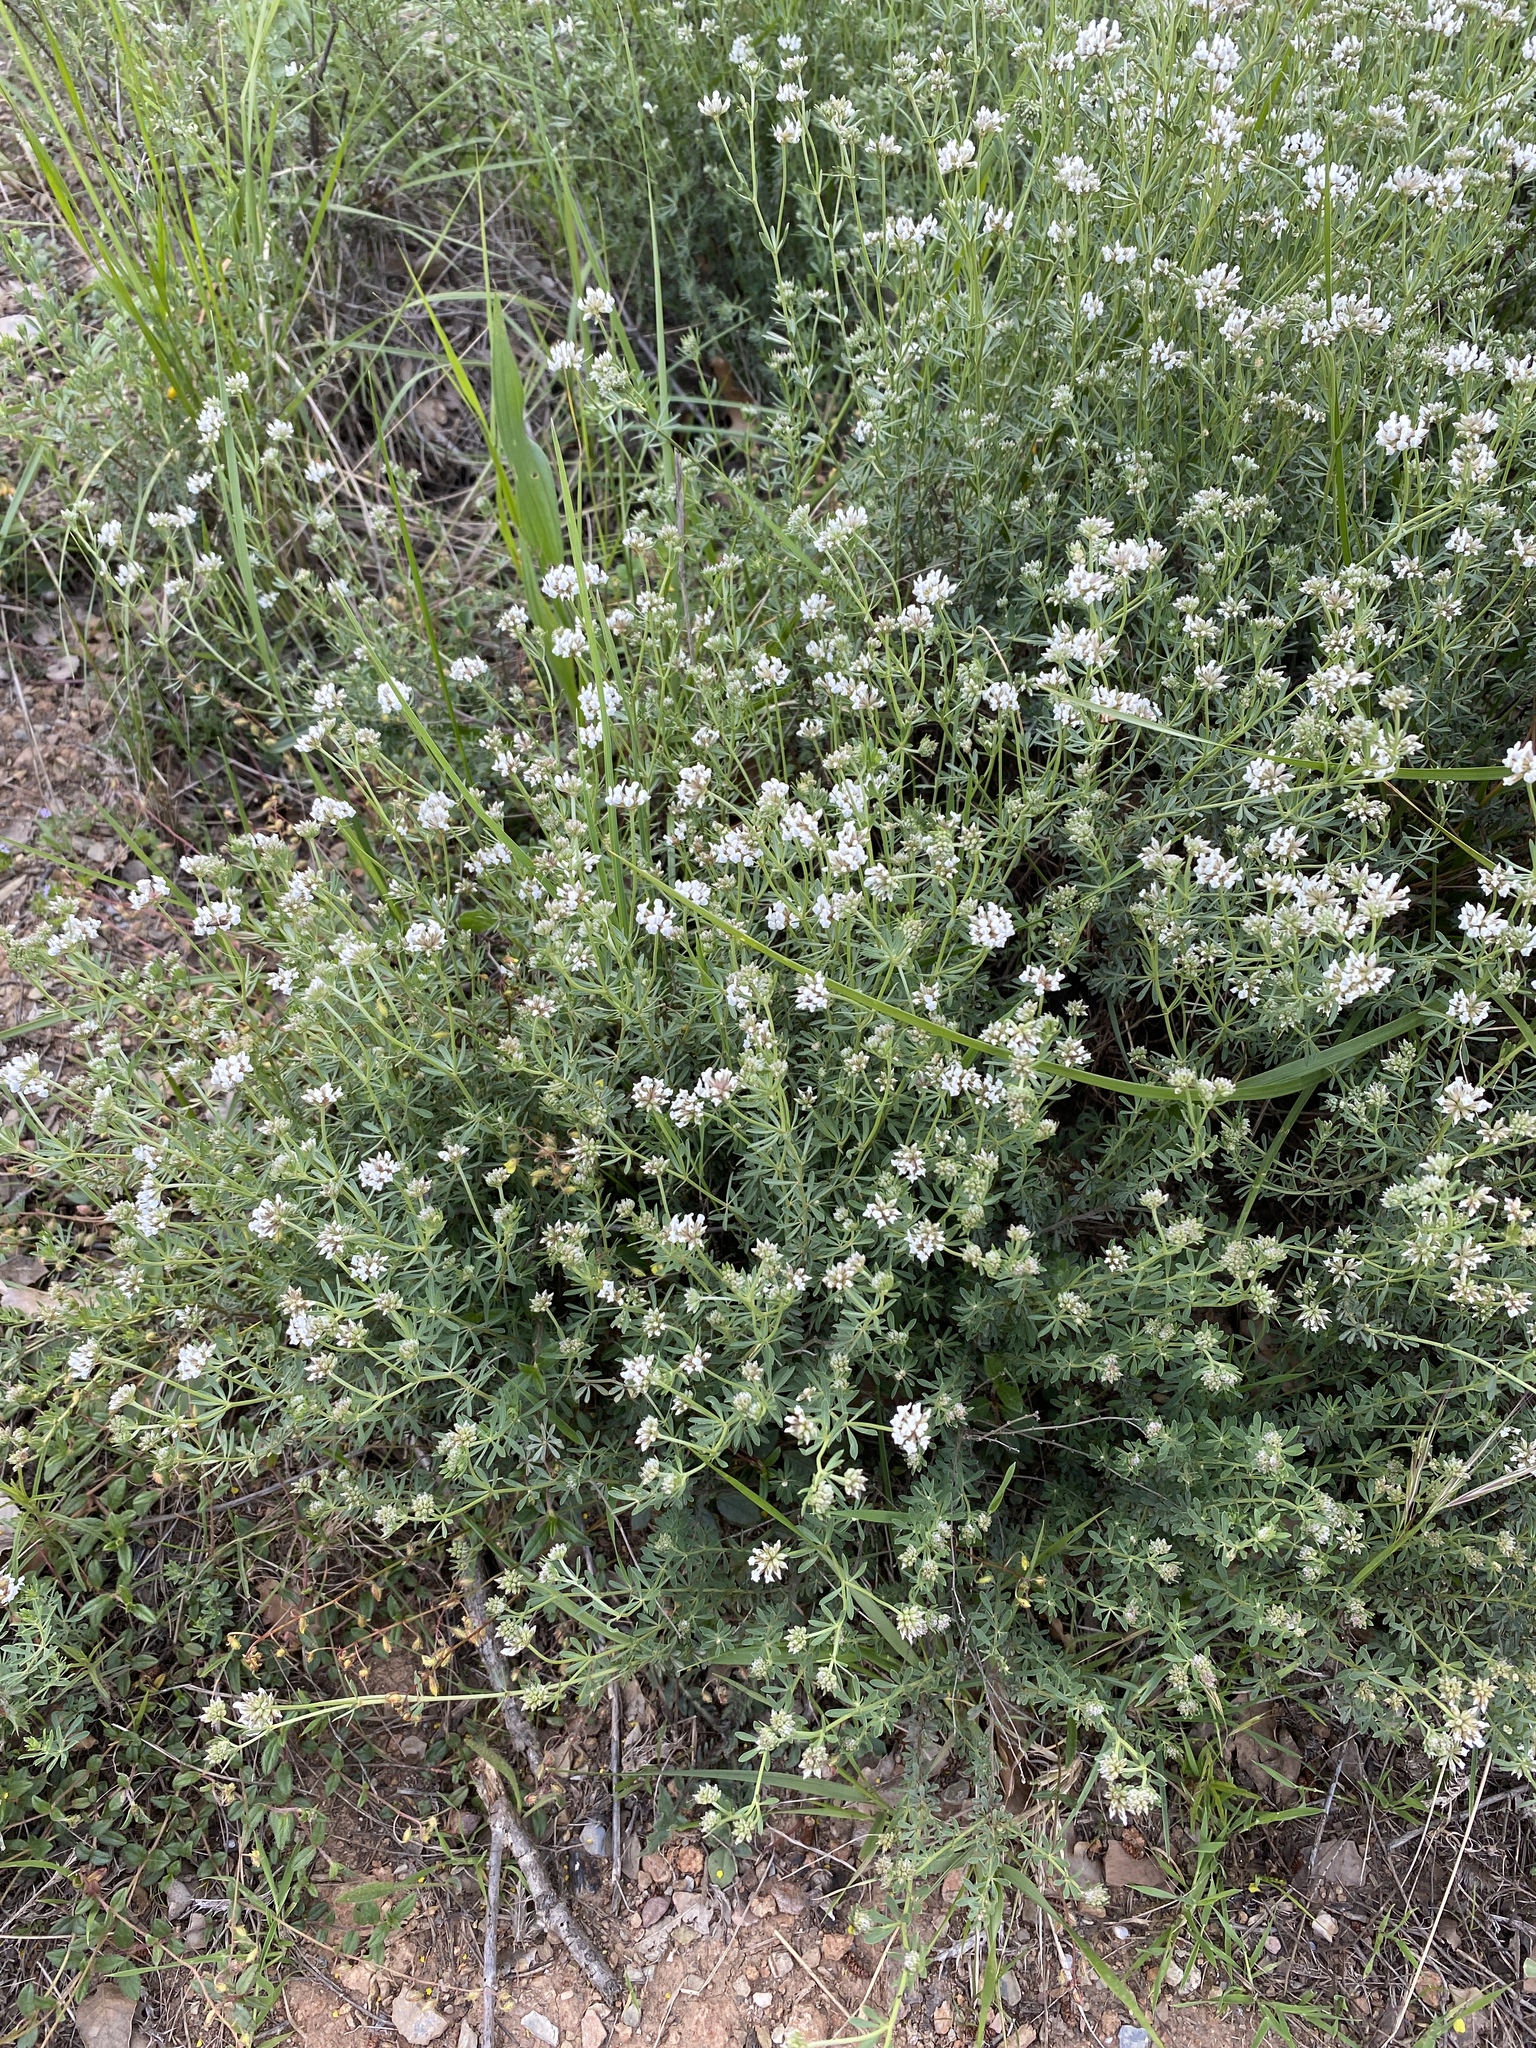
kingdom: Plantae
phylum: Tracheophyta
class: Magnoliopsida
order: Fabales
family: Fabaceae
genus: Lotus
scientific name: Lotus dorycnium
